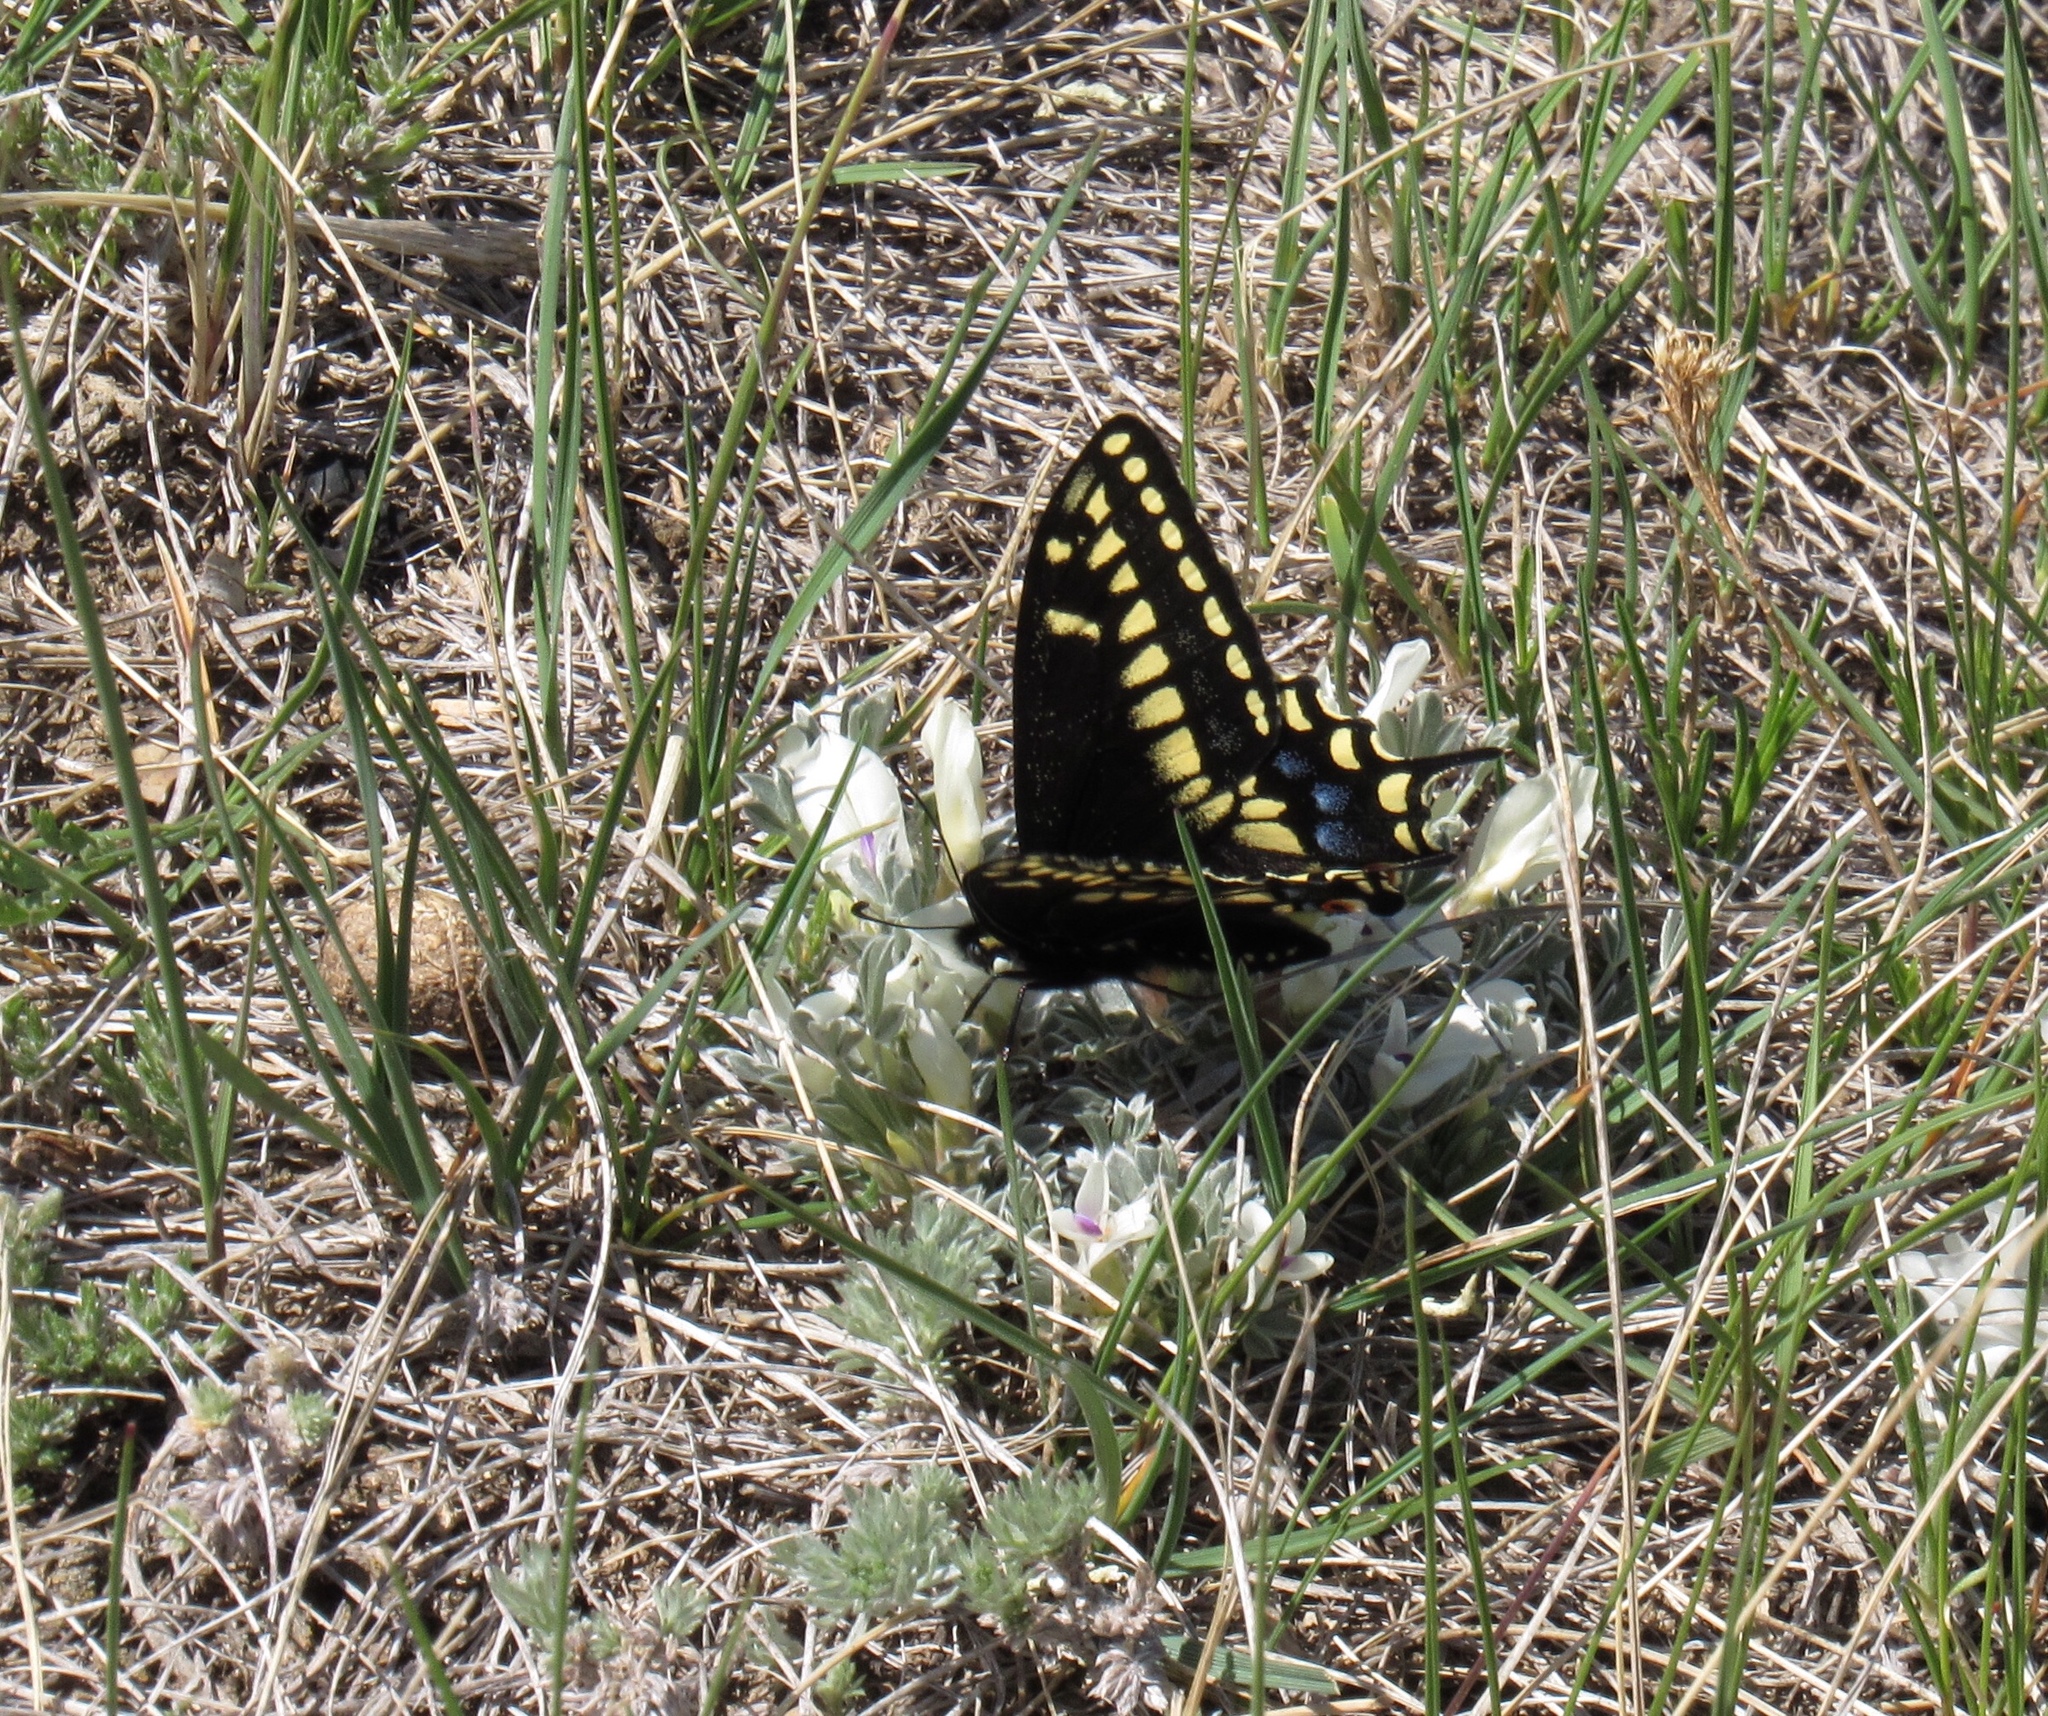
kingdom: Animalia
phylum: Arthropoda
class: Insecta
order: Lepidoptera
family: Papilionidae
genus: Papilio
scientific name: Papilio zelicaon
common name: Anise swallowtail
